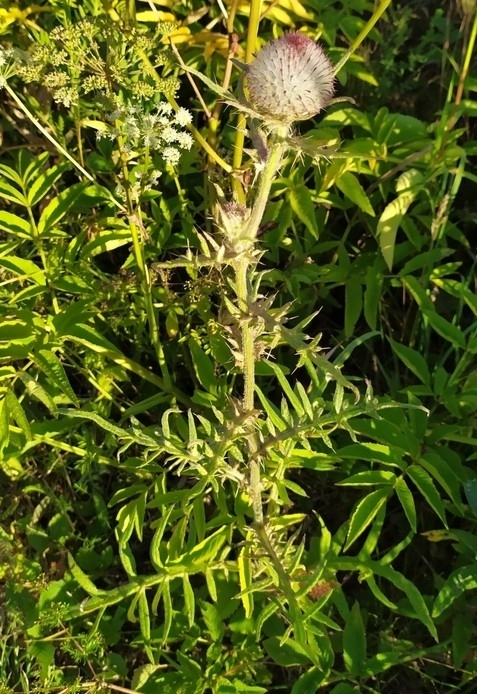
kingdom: Plantae
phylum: Tracheophyta
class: Magnoliopsida
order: Asterales
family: Asteraceae
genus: Lophiolepis
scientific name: Lophiolepis decussata
